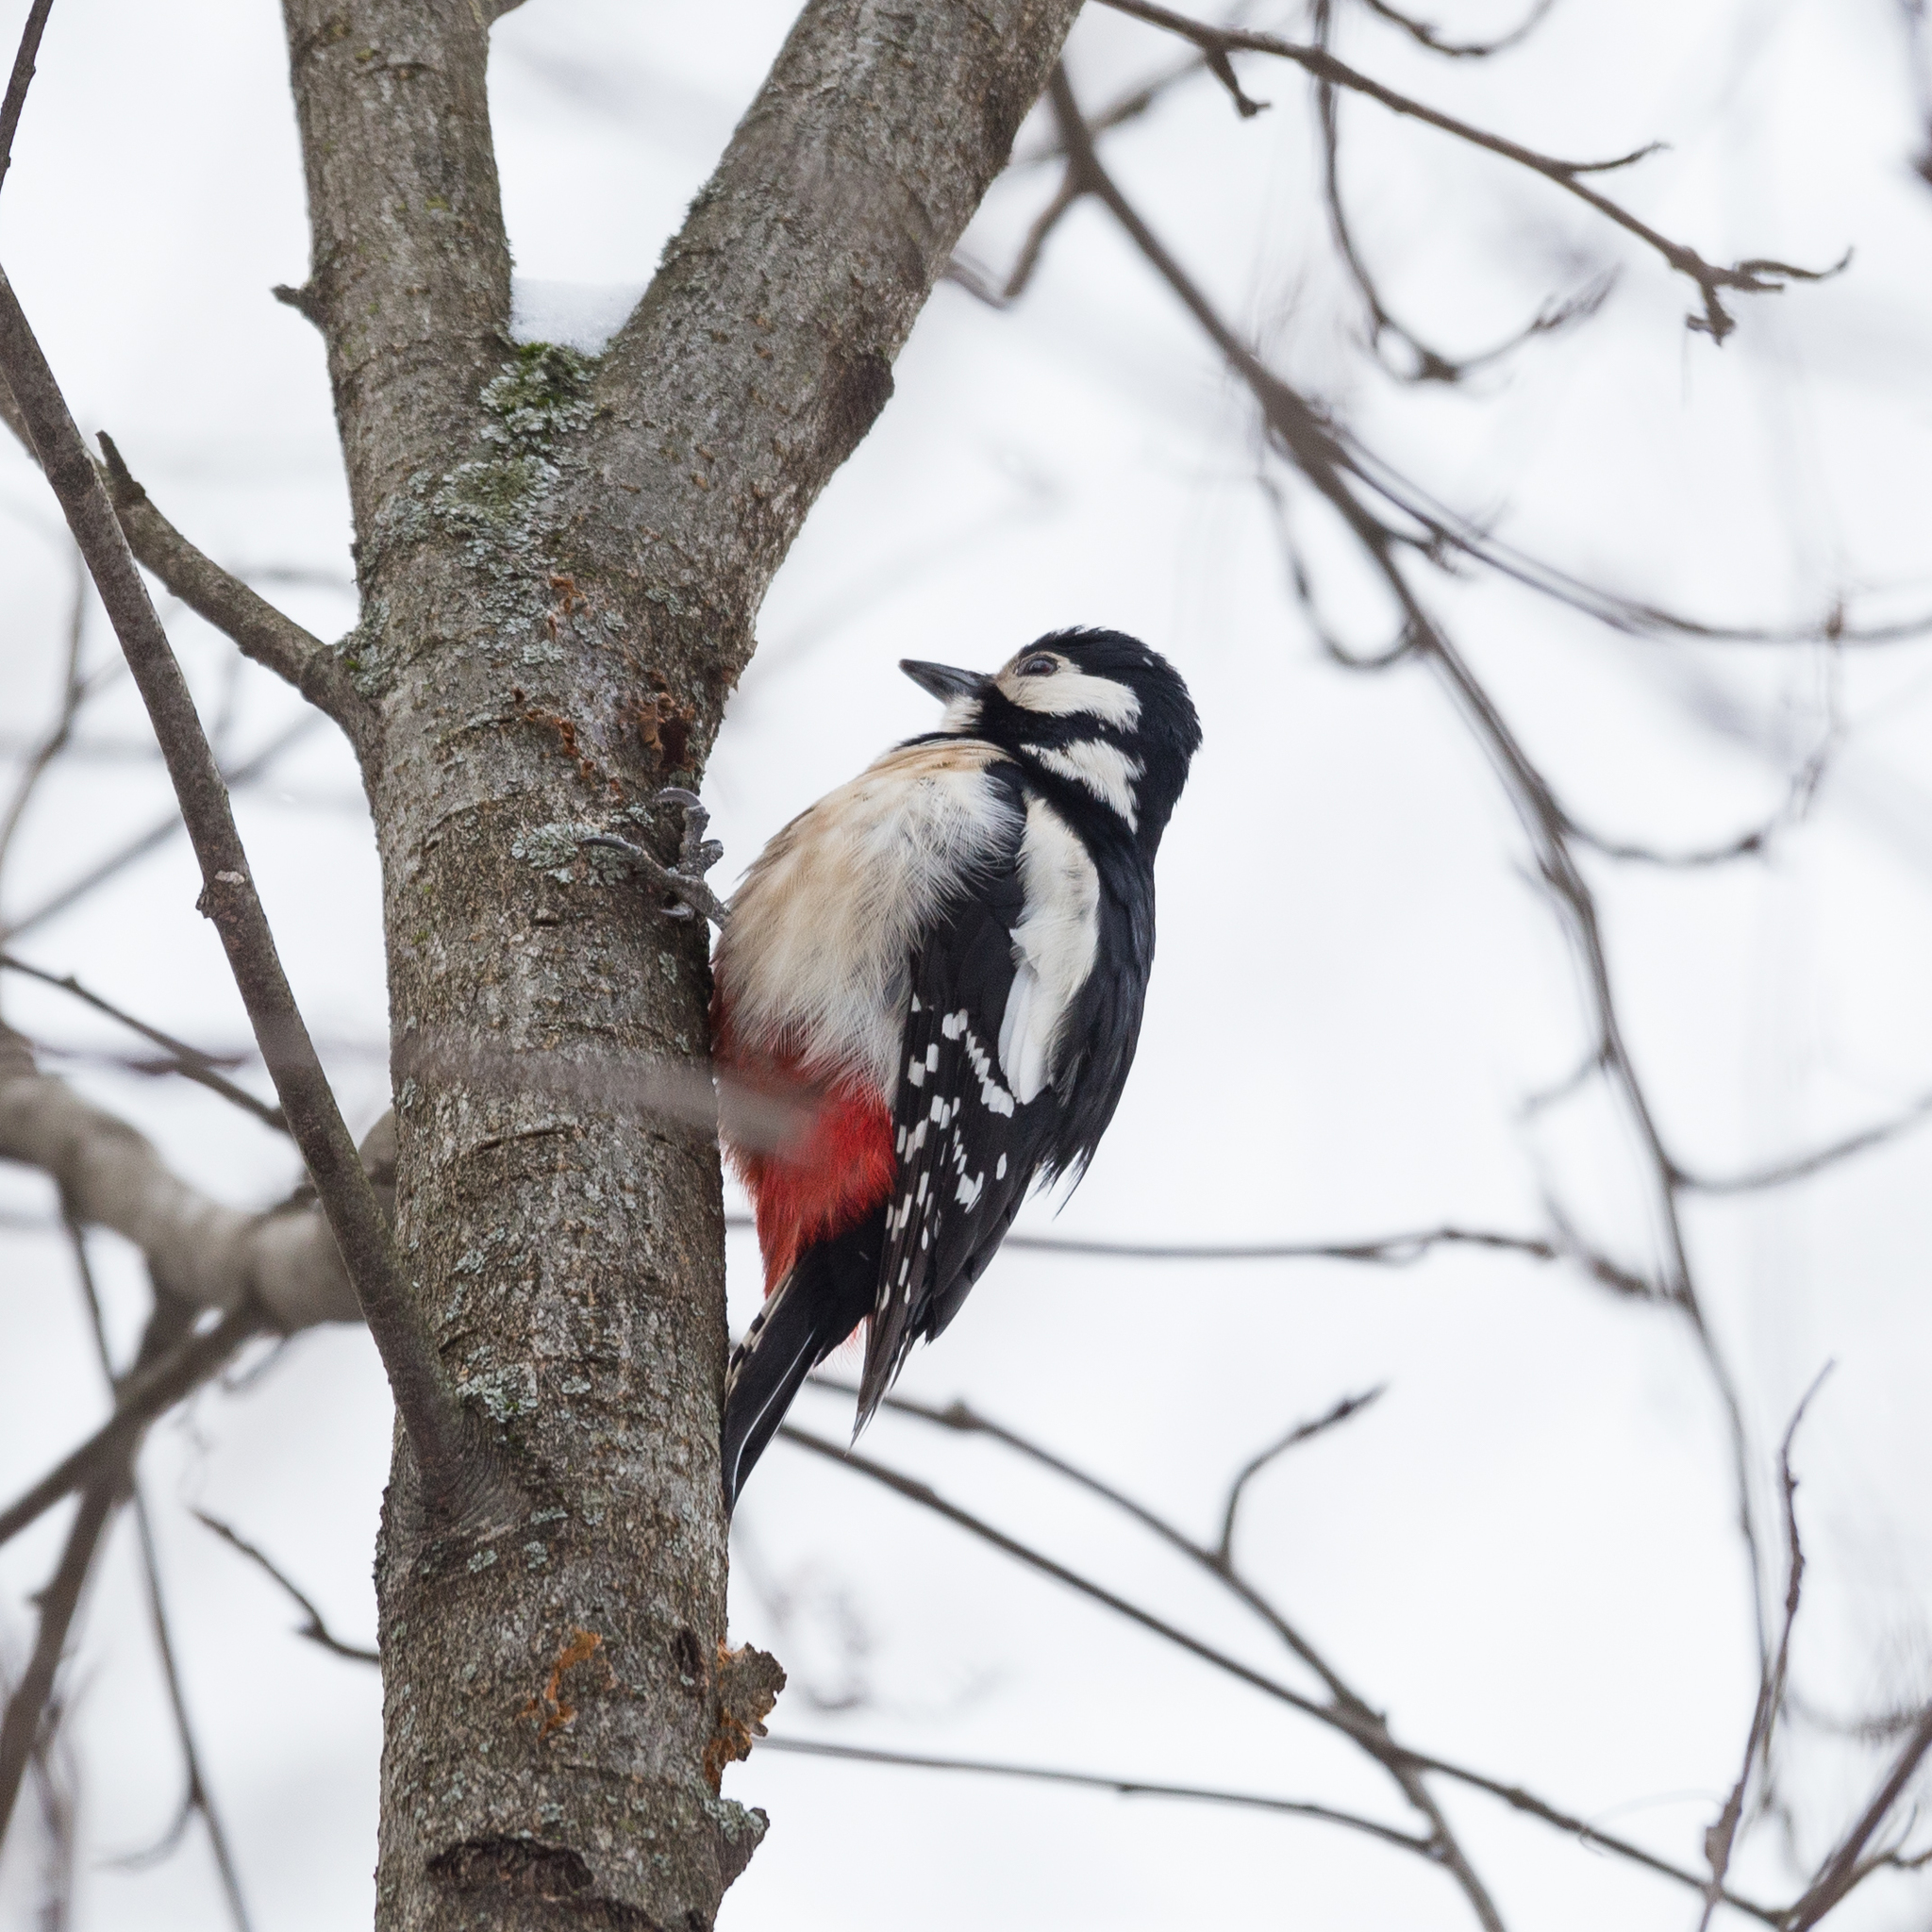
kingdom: Animalia
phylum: Chordata
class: Aves
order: Piciformes
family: Picidae
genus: Dendrocopos
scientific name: Dendrocopos major
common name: Great spotted woodpecker
